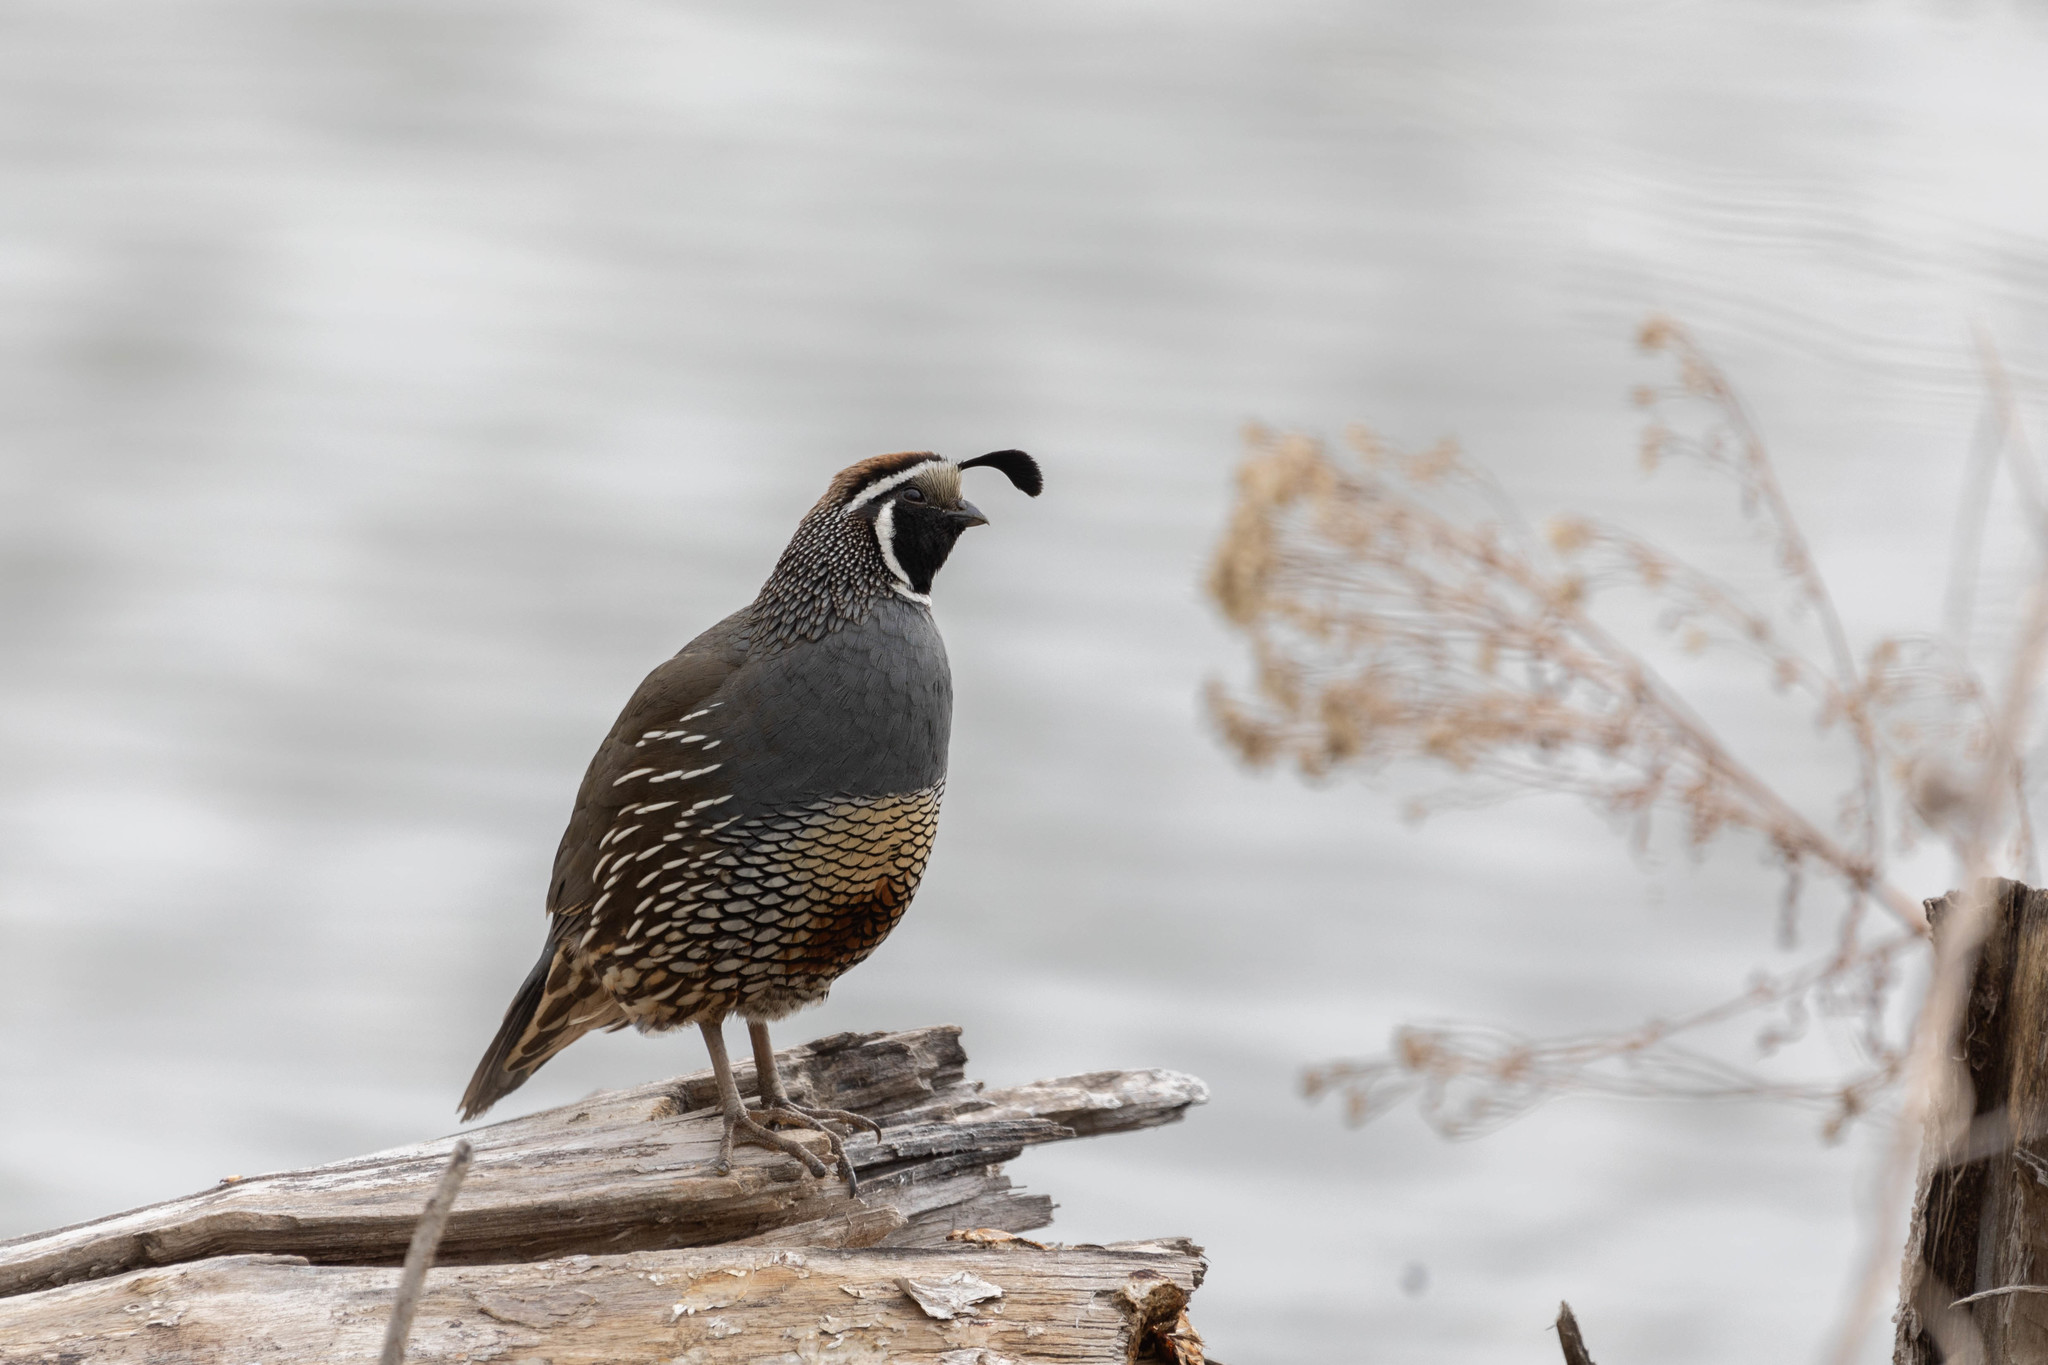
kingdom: Animalia
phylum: Chordata
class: Aves
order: Galliformes
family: Odontophoridae
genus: Callipepla
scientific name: Callipepla californica
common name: California quail
